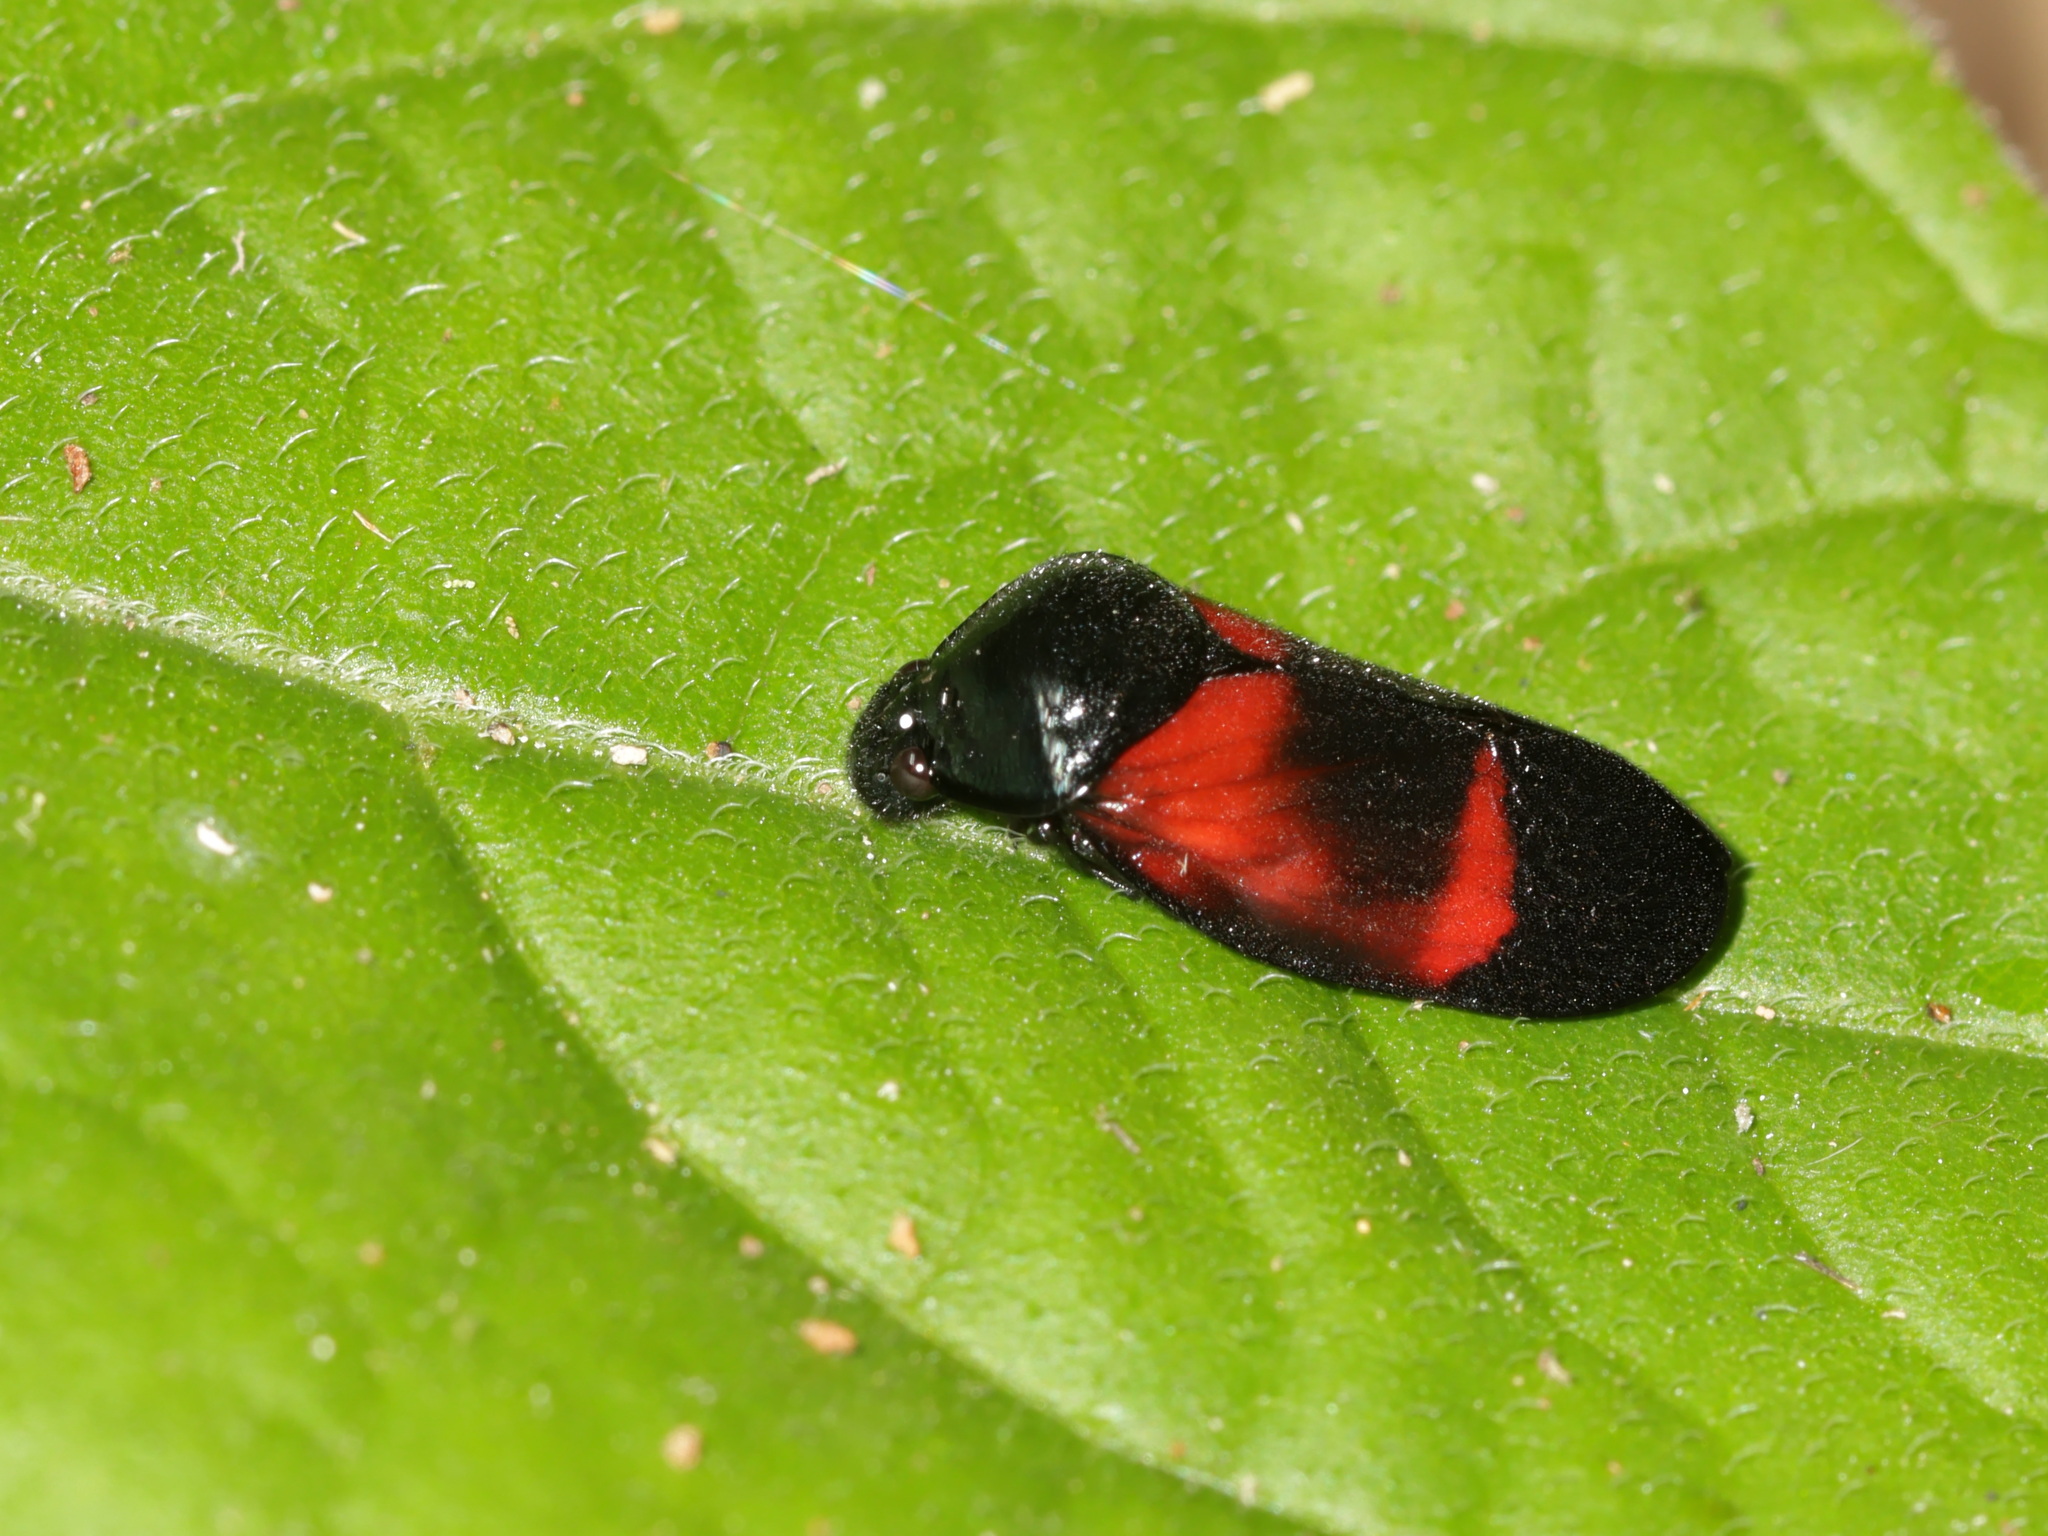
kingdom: Animalia
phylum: Arthropoda
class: Insecta
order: Hemiptera
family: Cercopidae
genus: Cosmoscarta
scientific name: Cosmoscarta gravelyi
